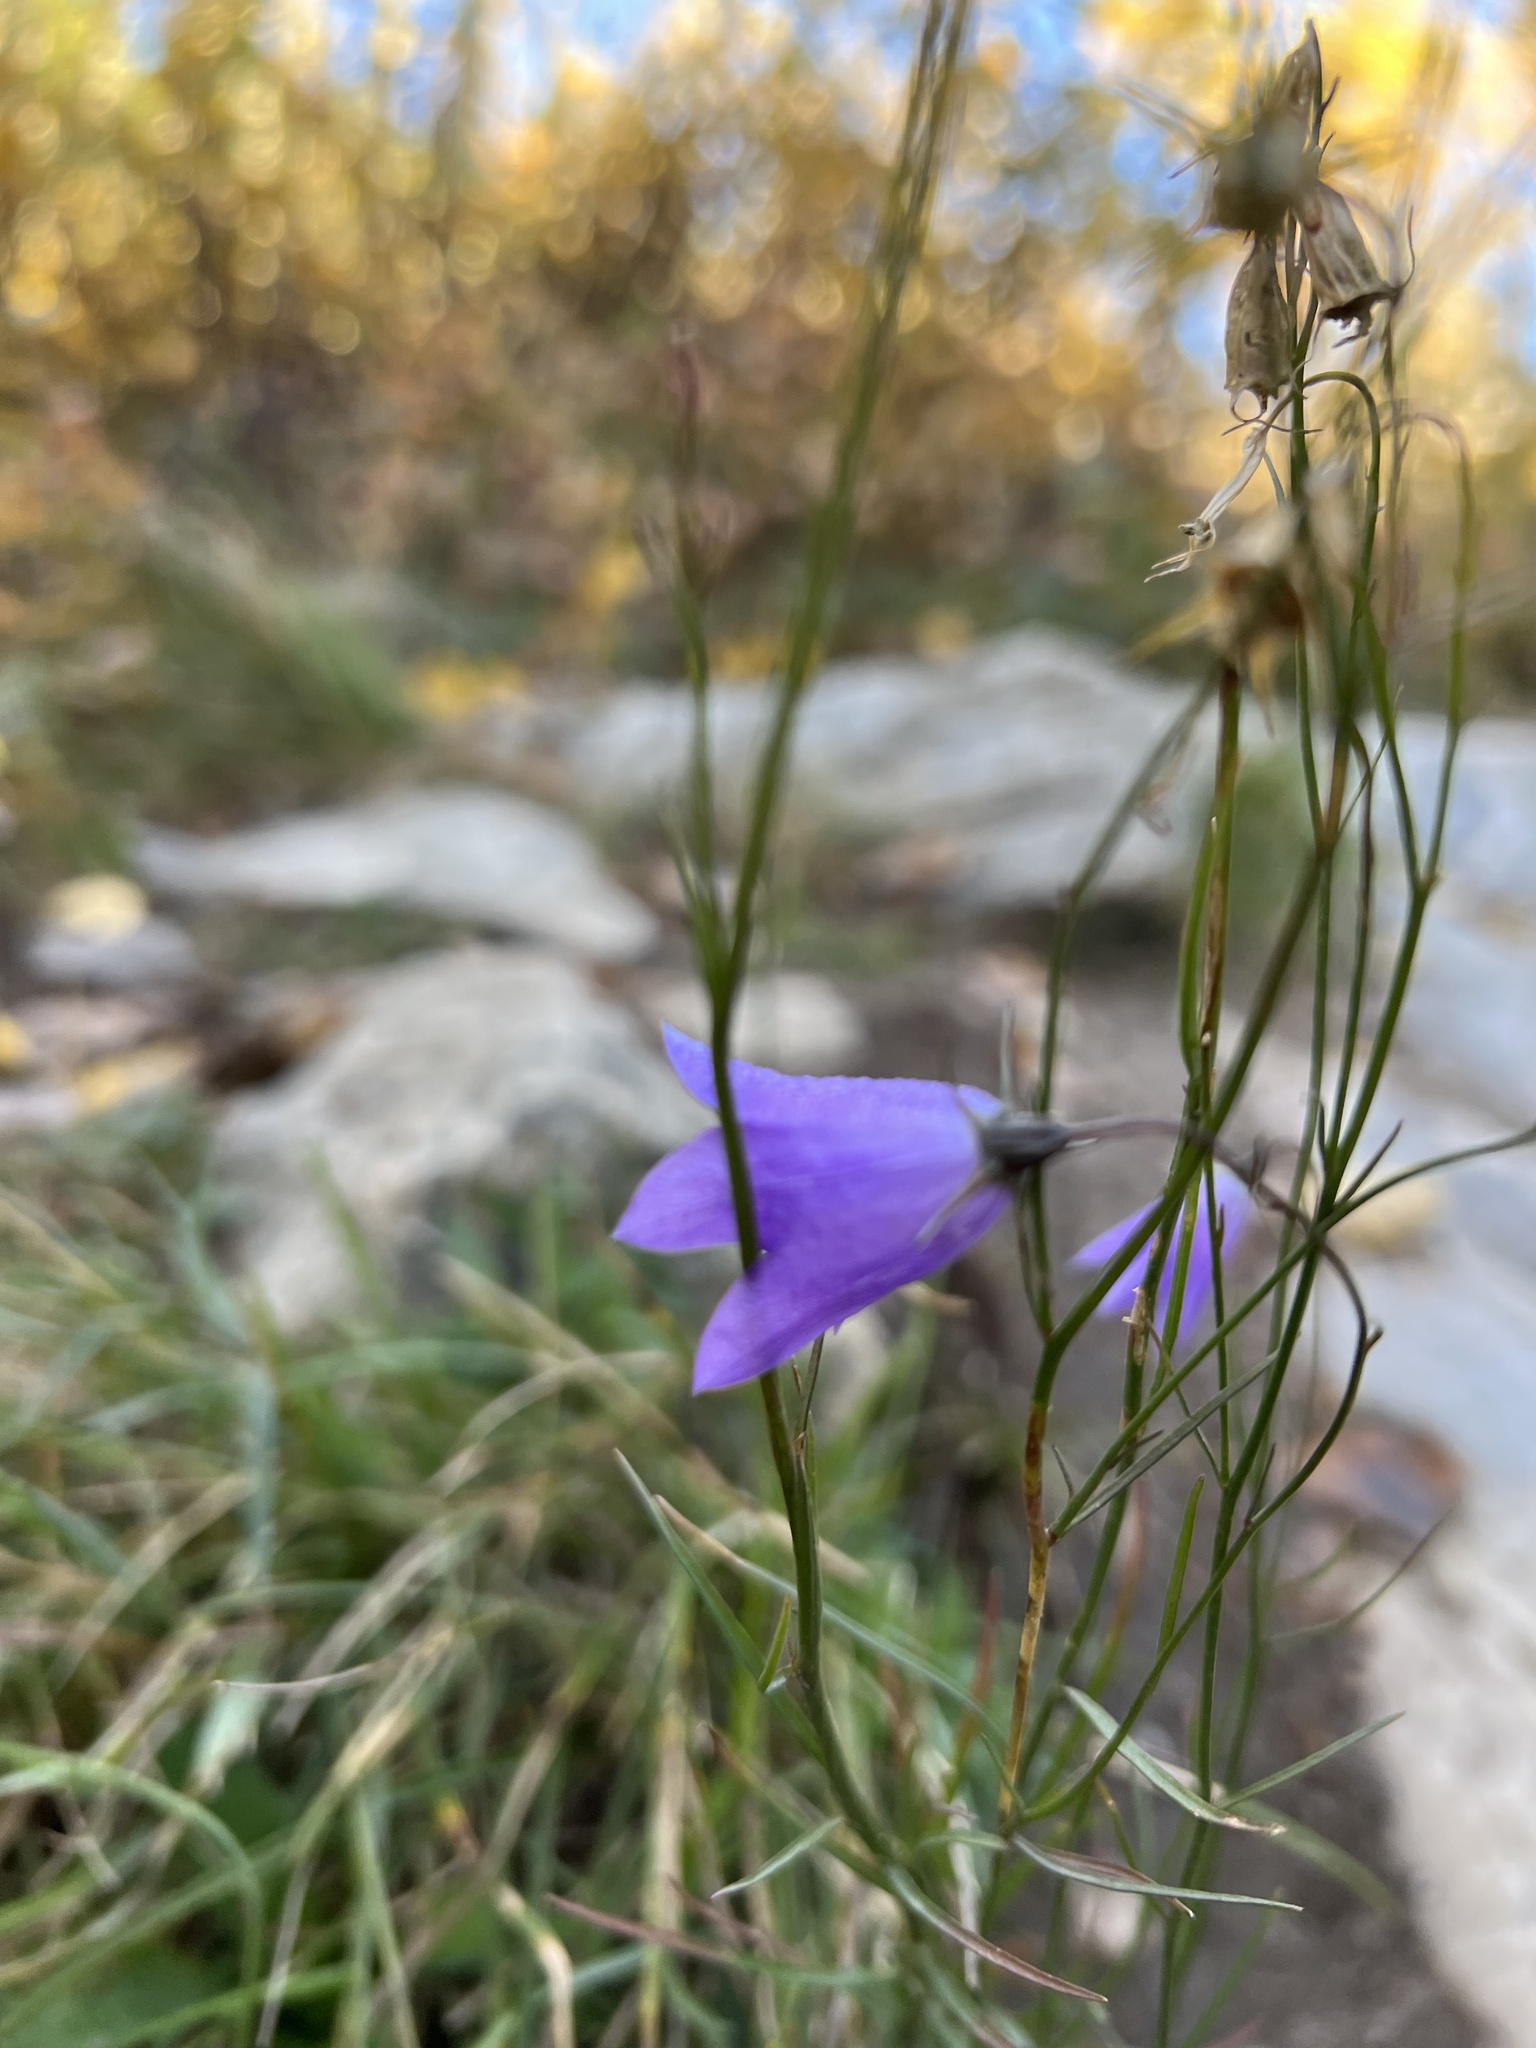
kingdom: Plantae
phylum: Tracheophyta
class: Magnoliopsida
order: Asterales
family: Campanulaceae
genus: Campanula
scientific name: Campanula
